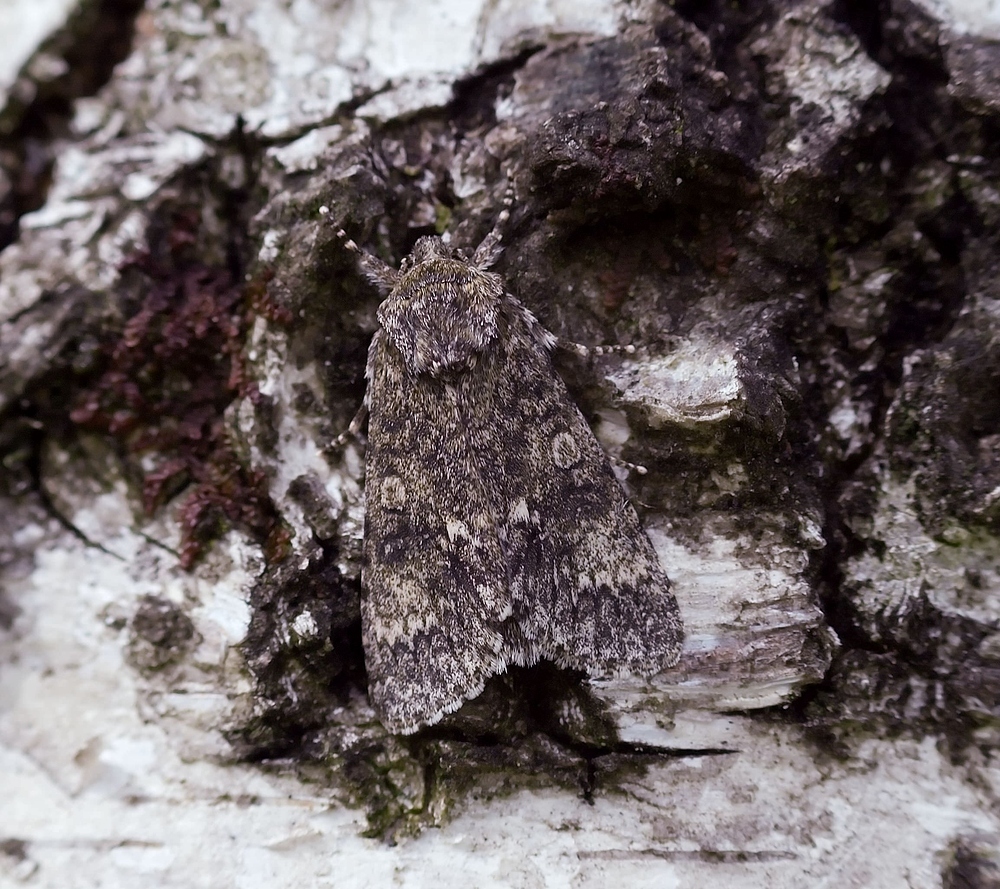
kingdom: Animalia
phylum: Arthropoda
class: Insecta
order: Lepidoptera
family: Noctuidae
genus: Acronicta
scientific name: Acronicta rumicis
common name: Knot grass
